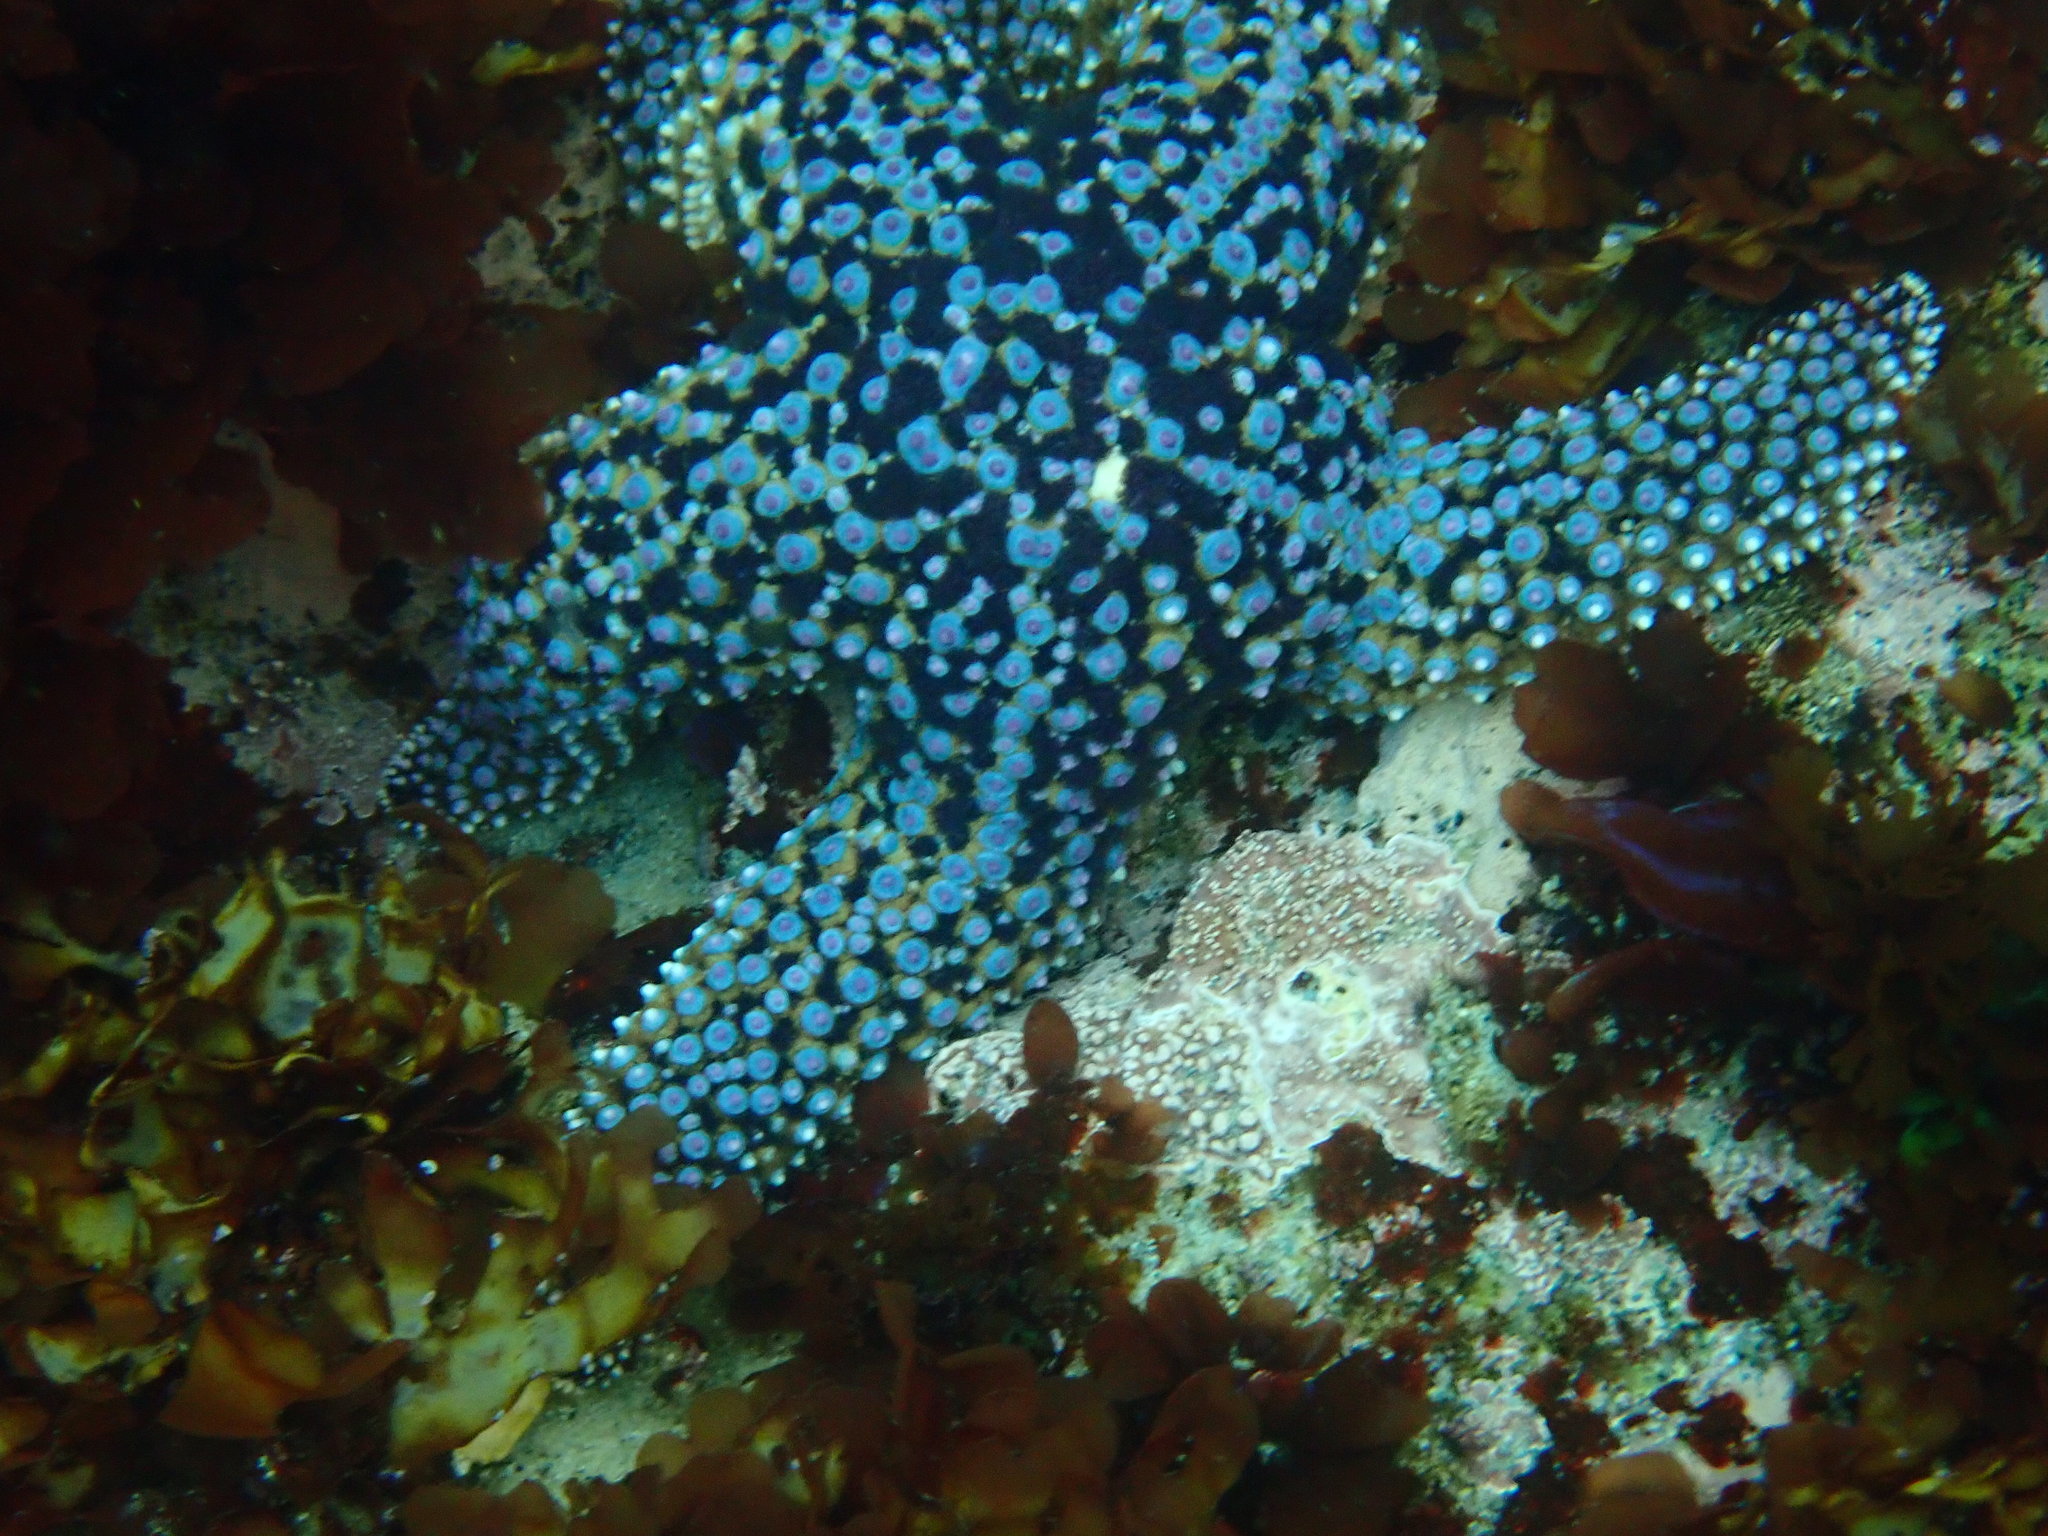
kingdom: Animalia
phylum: Echinodermata
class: Asteroidea
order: Forcipulatida
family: Asteriidae
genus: Pisaster
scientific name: Pisaster giganteus
